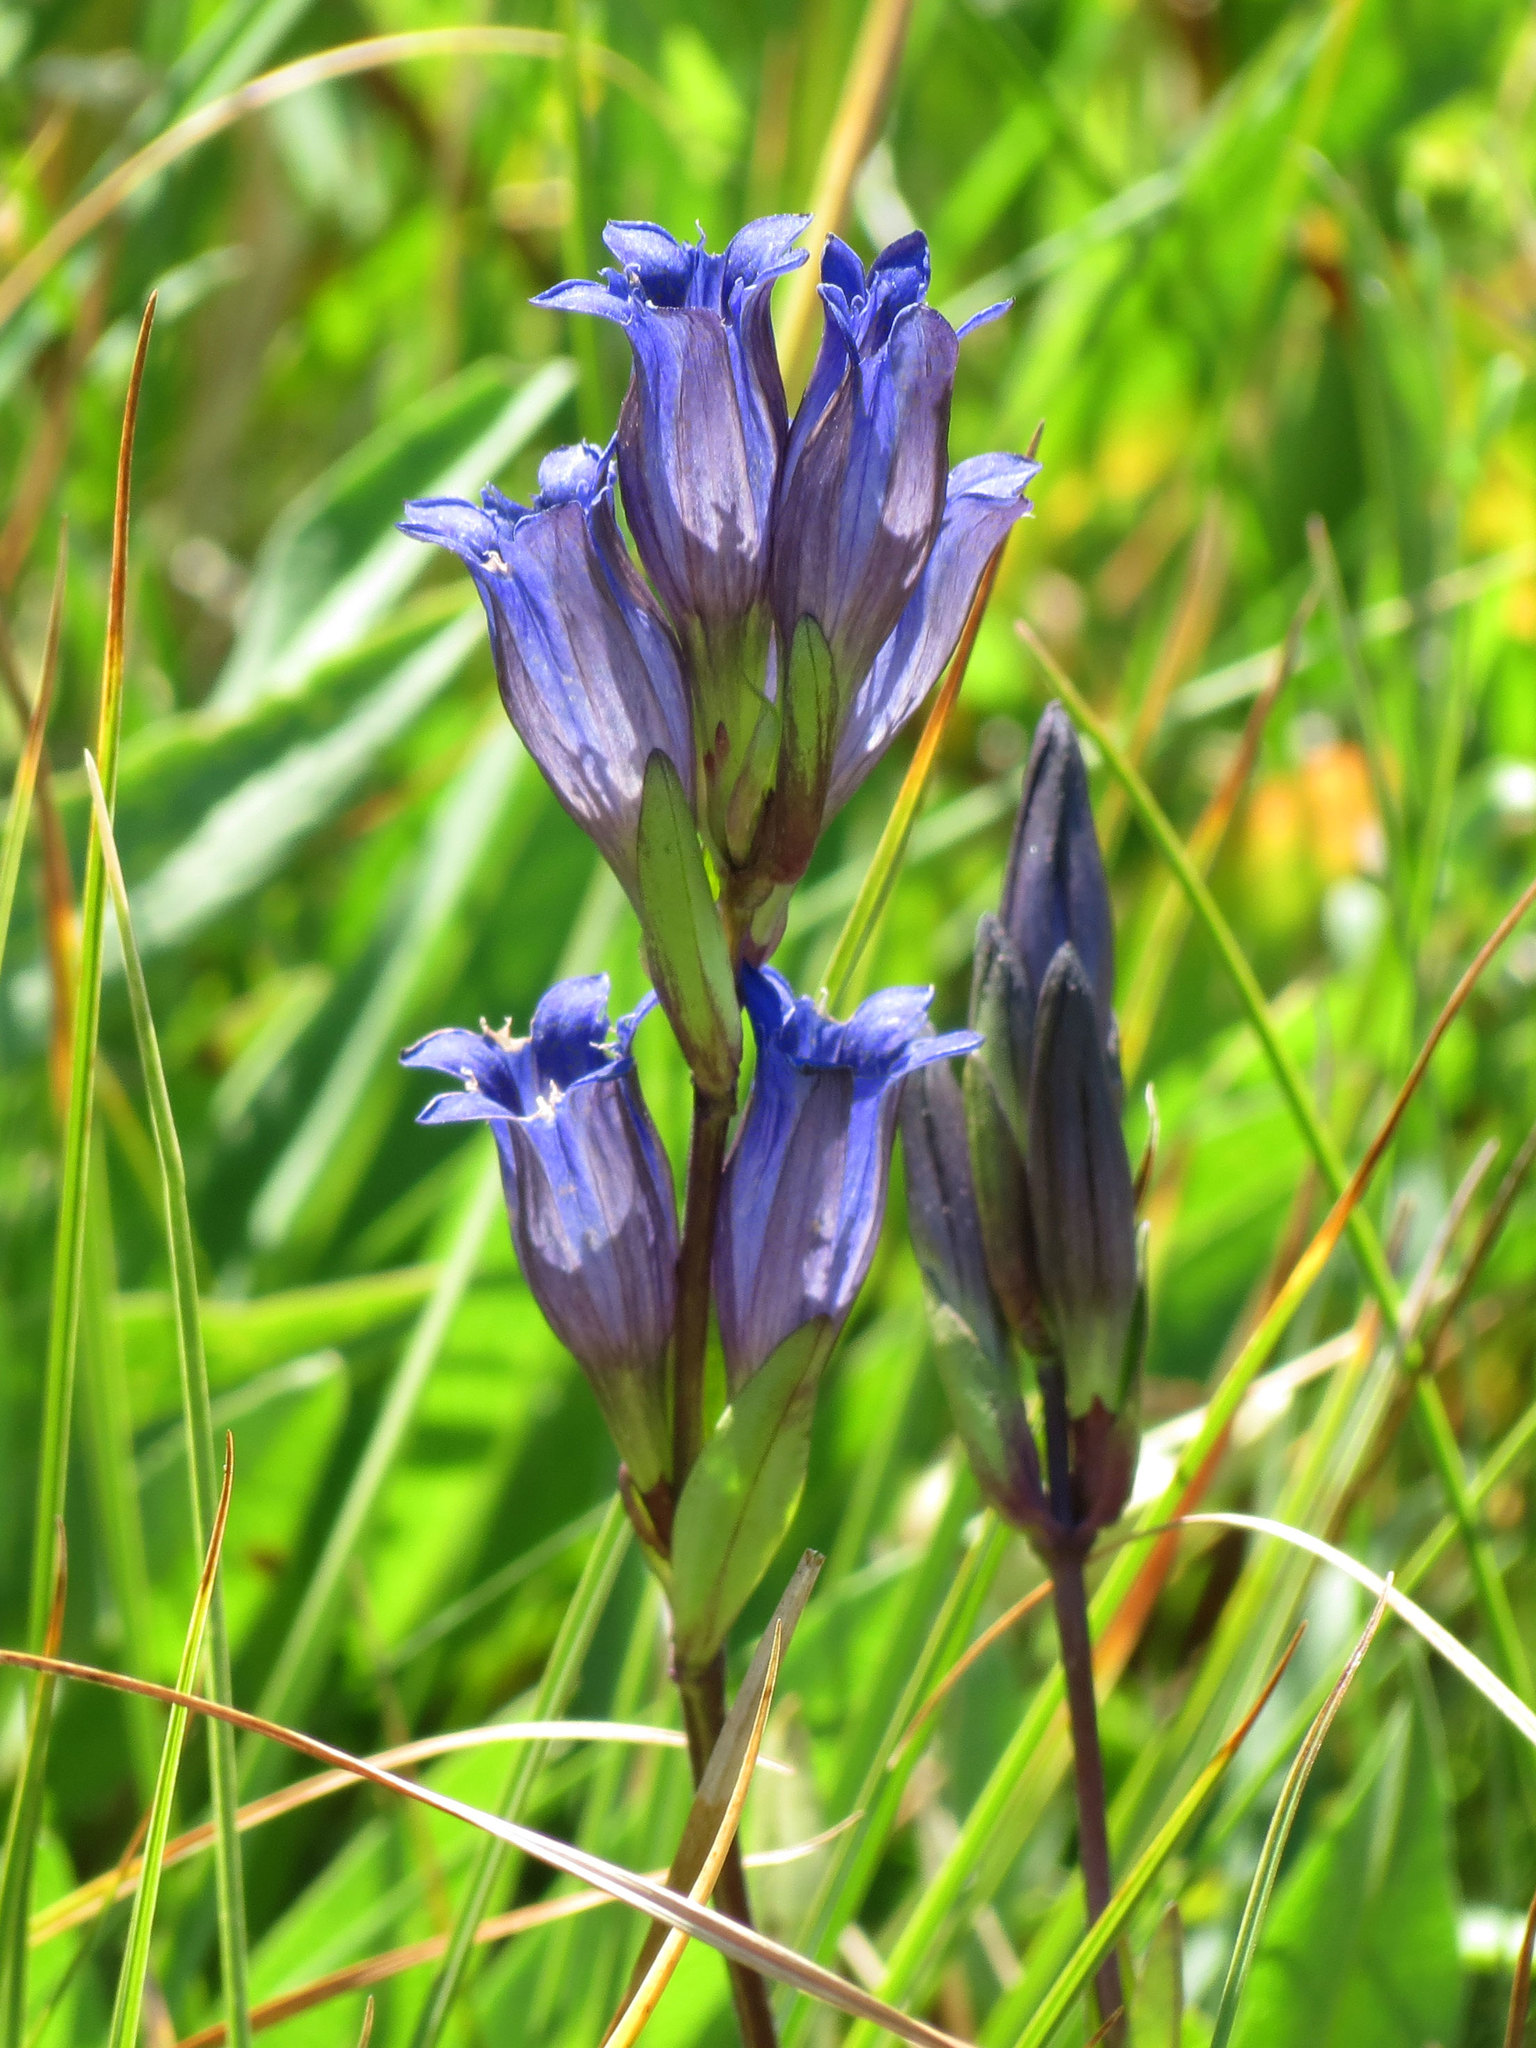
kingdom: Plantae
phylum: Tracheophyta
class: Magnoliopsida
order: Gentianales
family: Gentianaceae
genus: Gentiana
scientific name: Gentiana affinis
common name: Rocky mountain gentian
